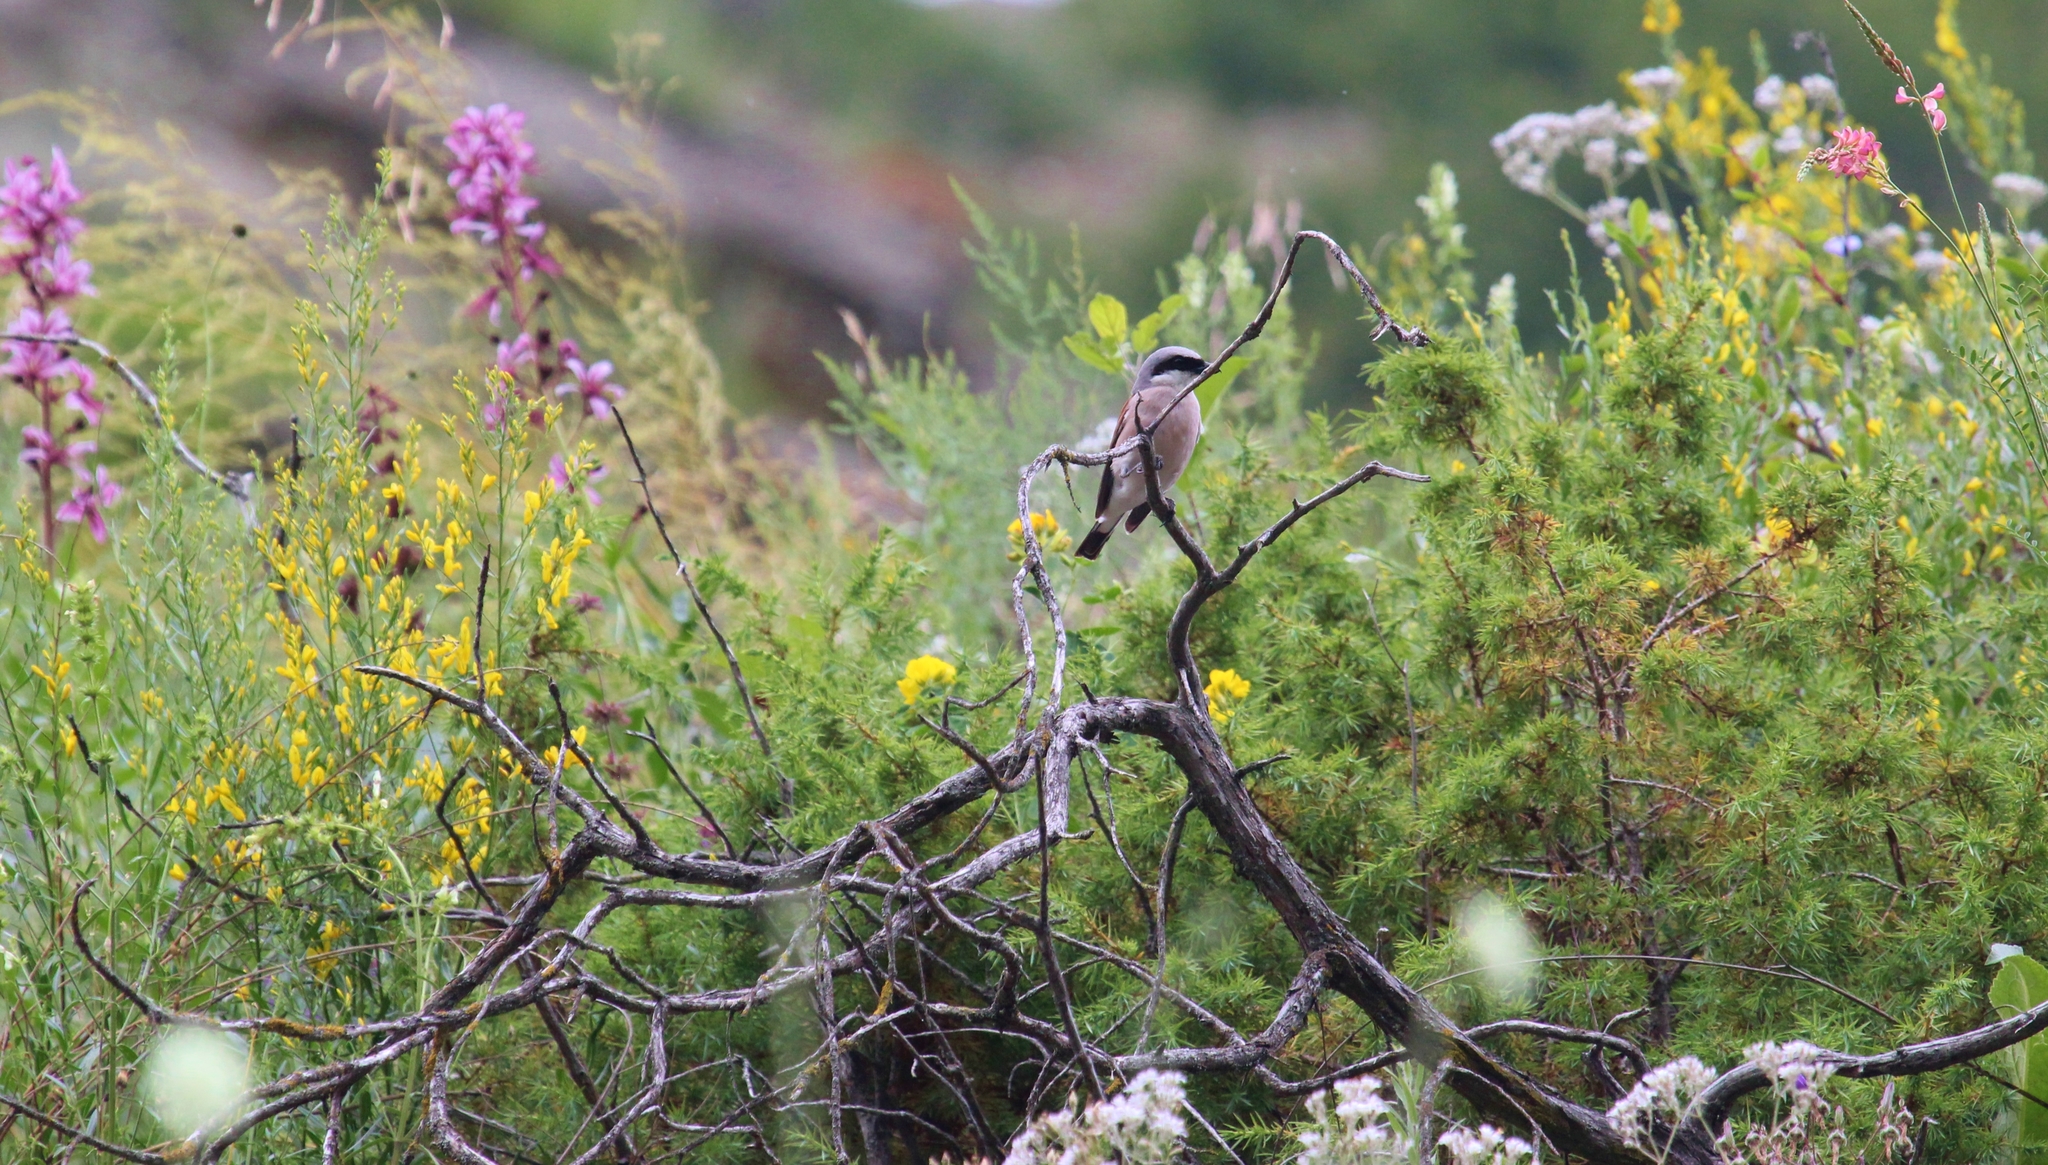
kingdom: Animalia
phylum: Chordata
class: Aves
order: Passeriformes
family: Laniidae
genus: Lanius
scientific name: Lanius collurio
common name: Red-backed shrike
